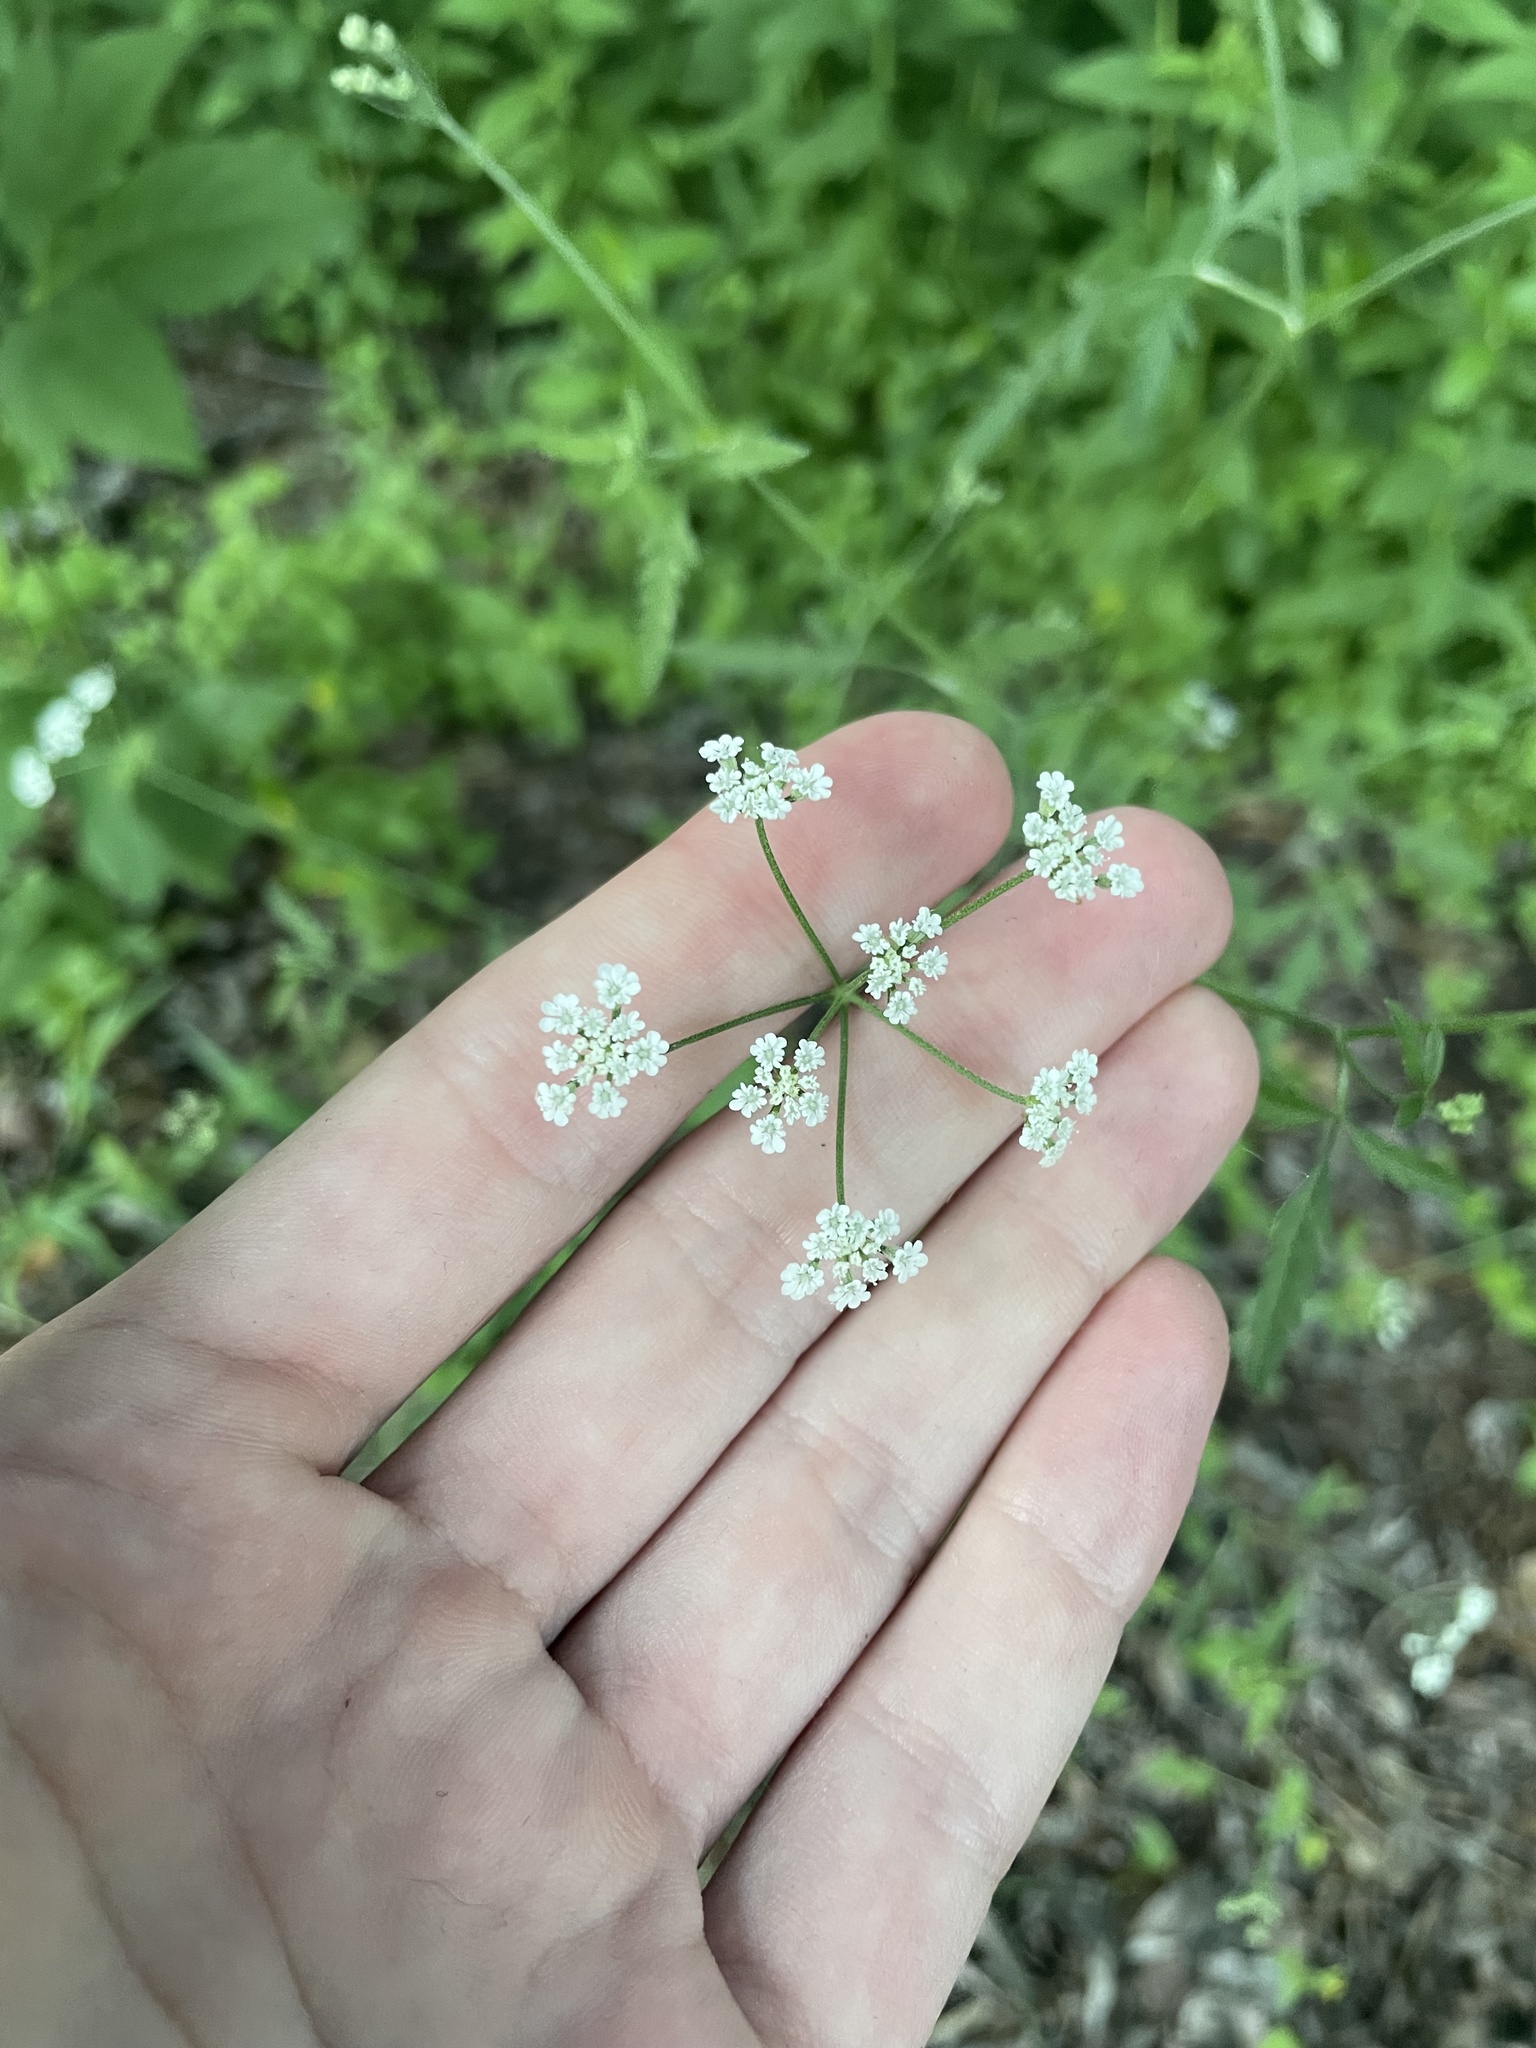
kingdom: Plantae
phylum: Tracheophyta
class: Magnoliopsida
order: Apiales
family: Apiaceae
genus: Torilis
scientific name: Torilis arvensis
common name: Spreading hedge-parsley
